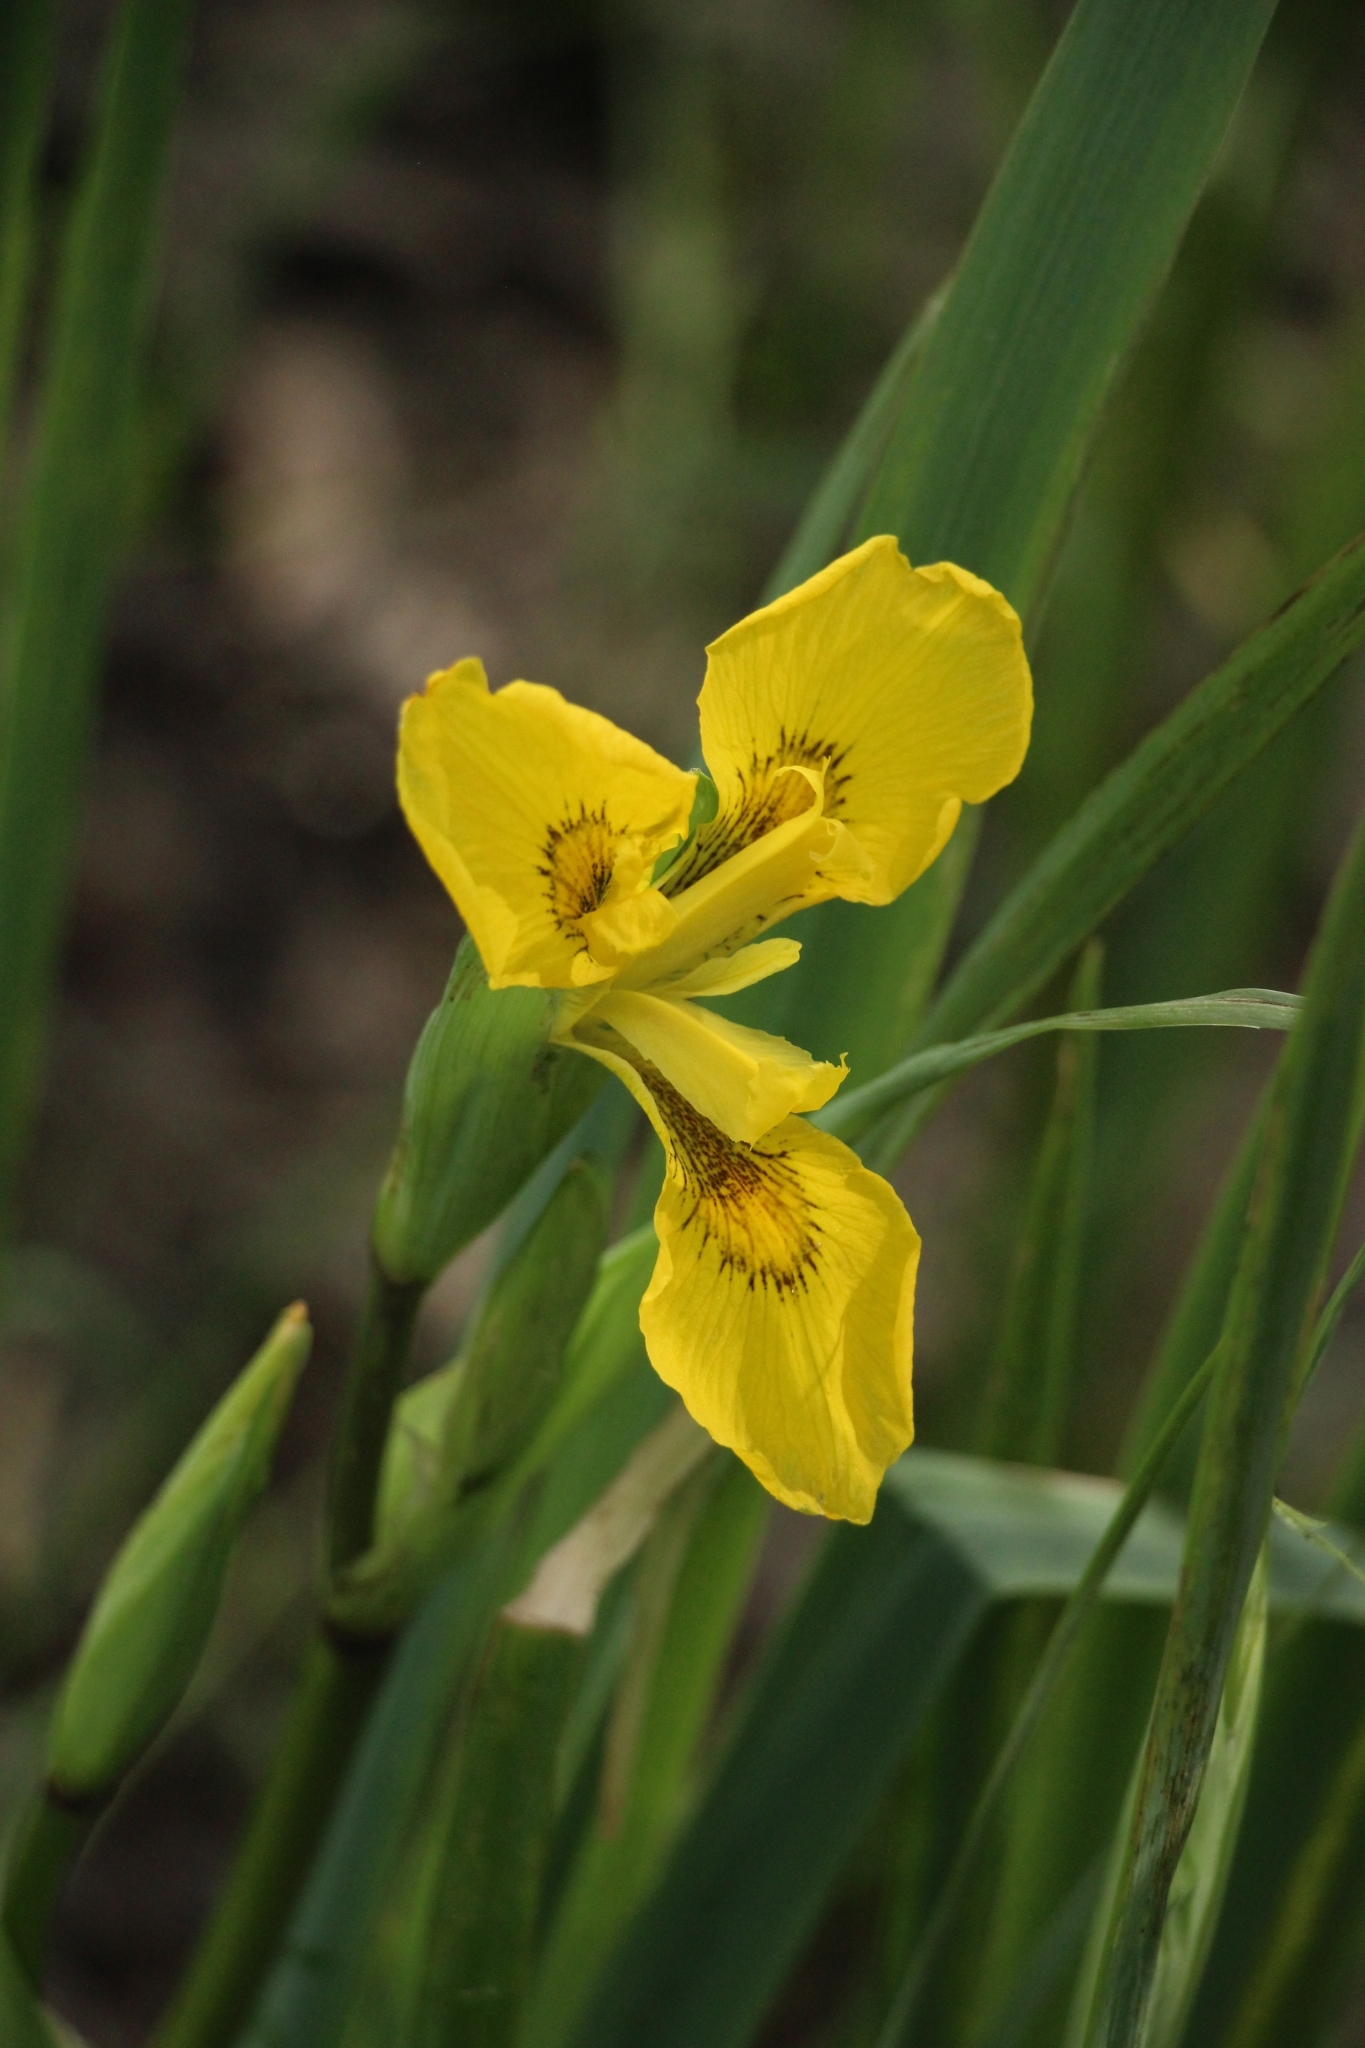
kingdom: Plantae
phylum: Tracheophyta
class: Liliopsida
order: Asparagales
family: Iridaceae
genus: Iris
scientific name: Iris pseudacorus
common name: Yellow flag
